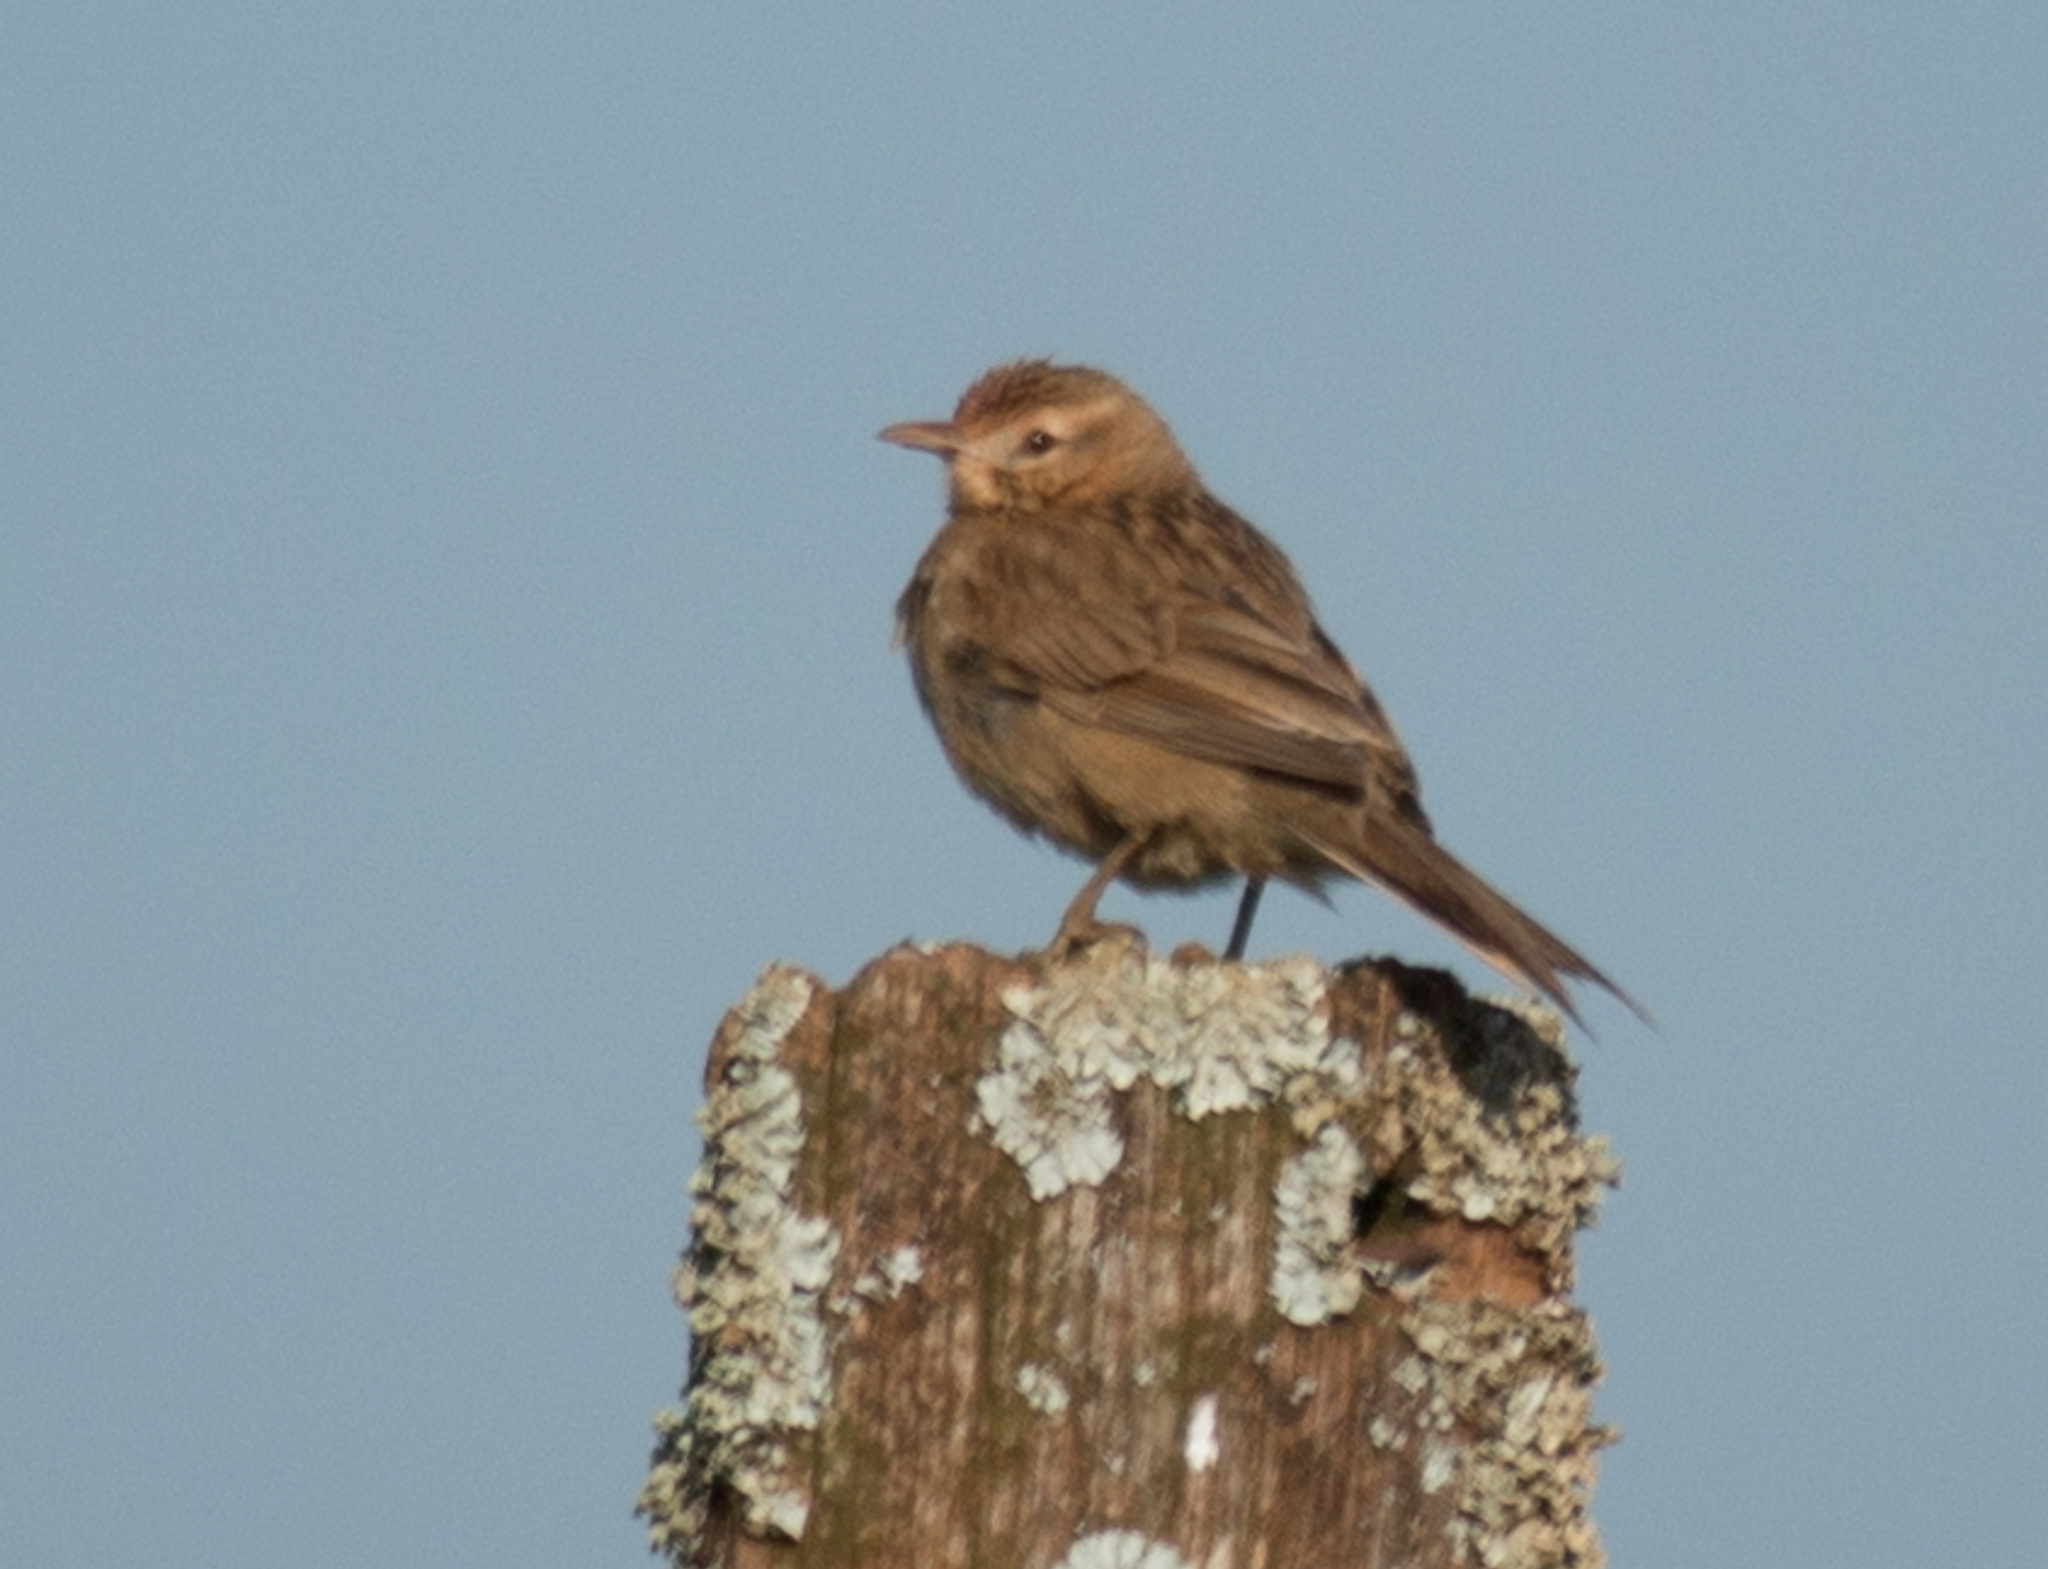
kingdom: Animalia
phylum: Chordata
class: Aves
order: Passeriformes
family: Furnariidae
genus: Anumbius
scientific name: Anumbius annumbi
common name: Firewood-gatherer
